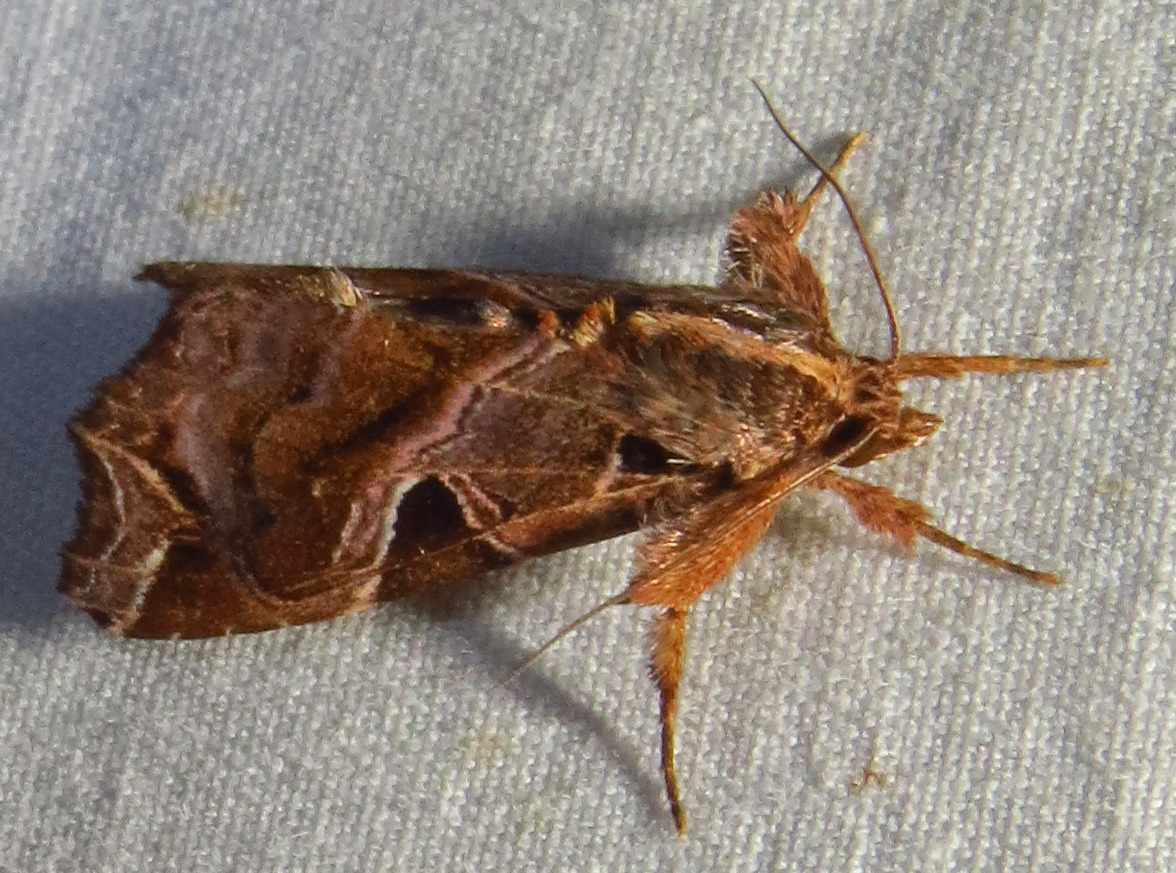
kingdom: Animalia
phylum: Arthropoda
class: Insecta
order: Lepidoptera
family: Noctuidae
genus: Callopistria
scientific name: Callopistria floridensis
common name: Florida fern moth
